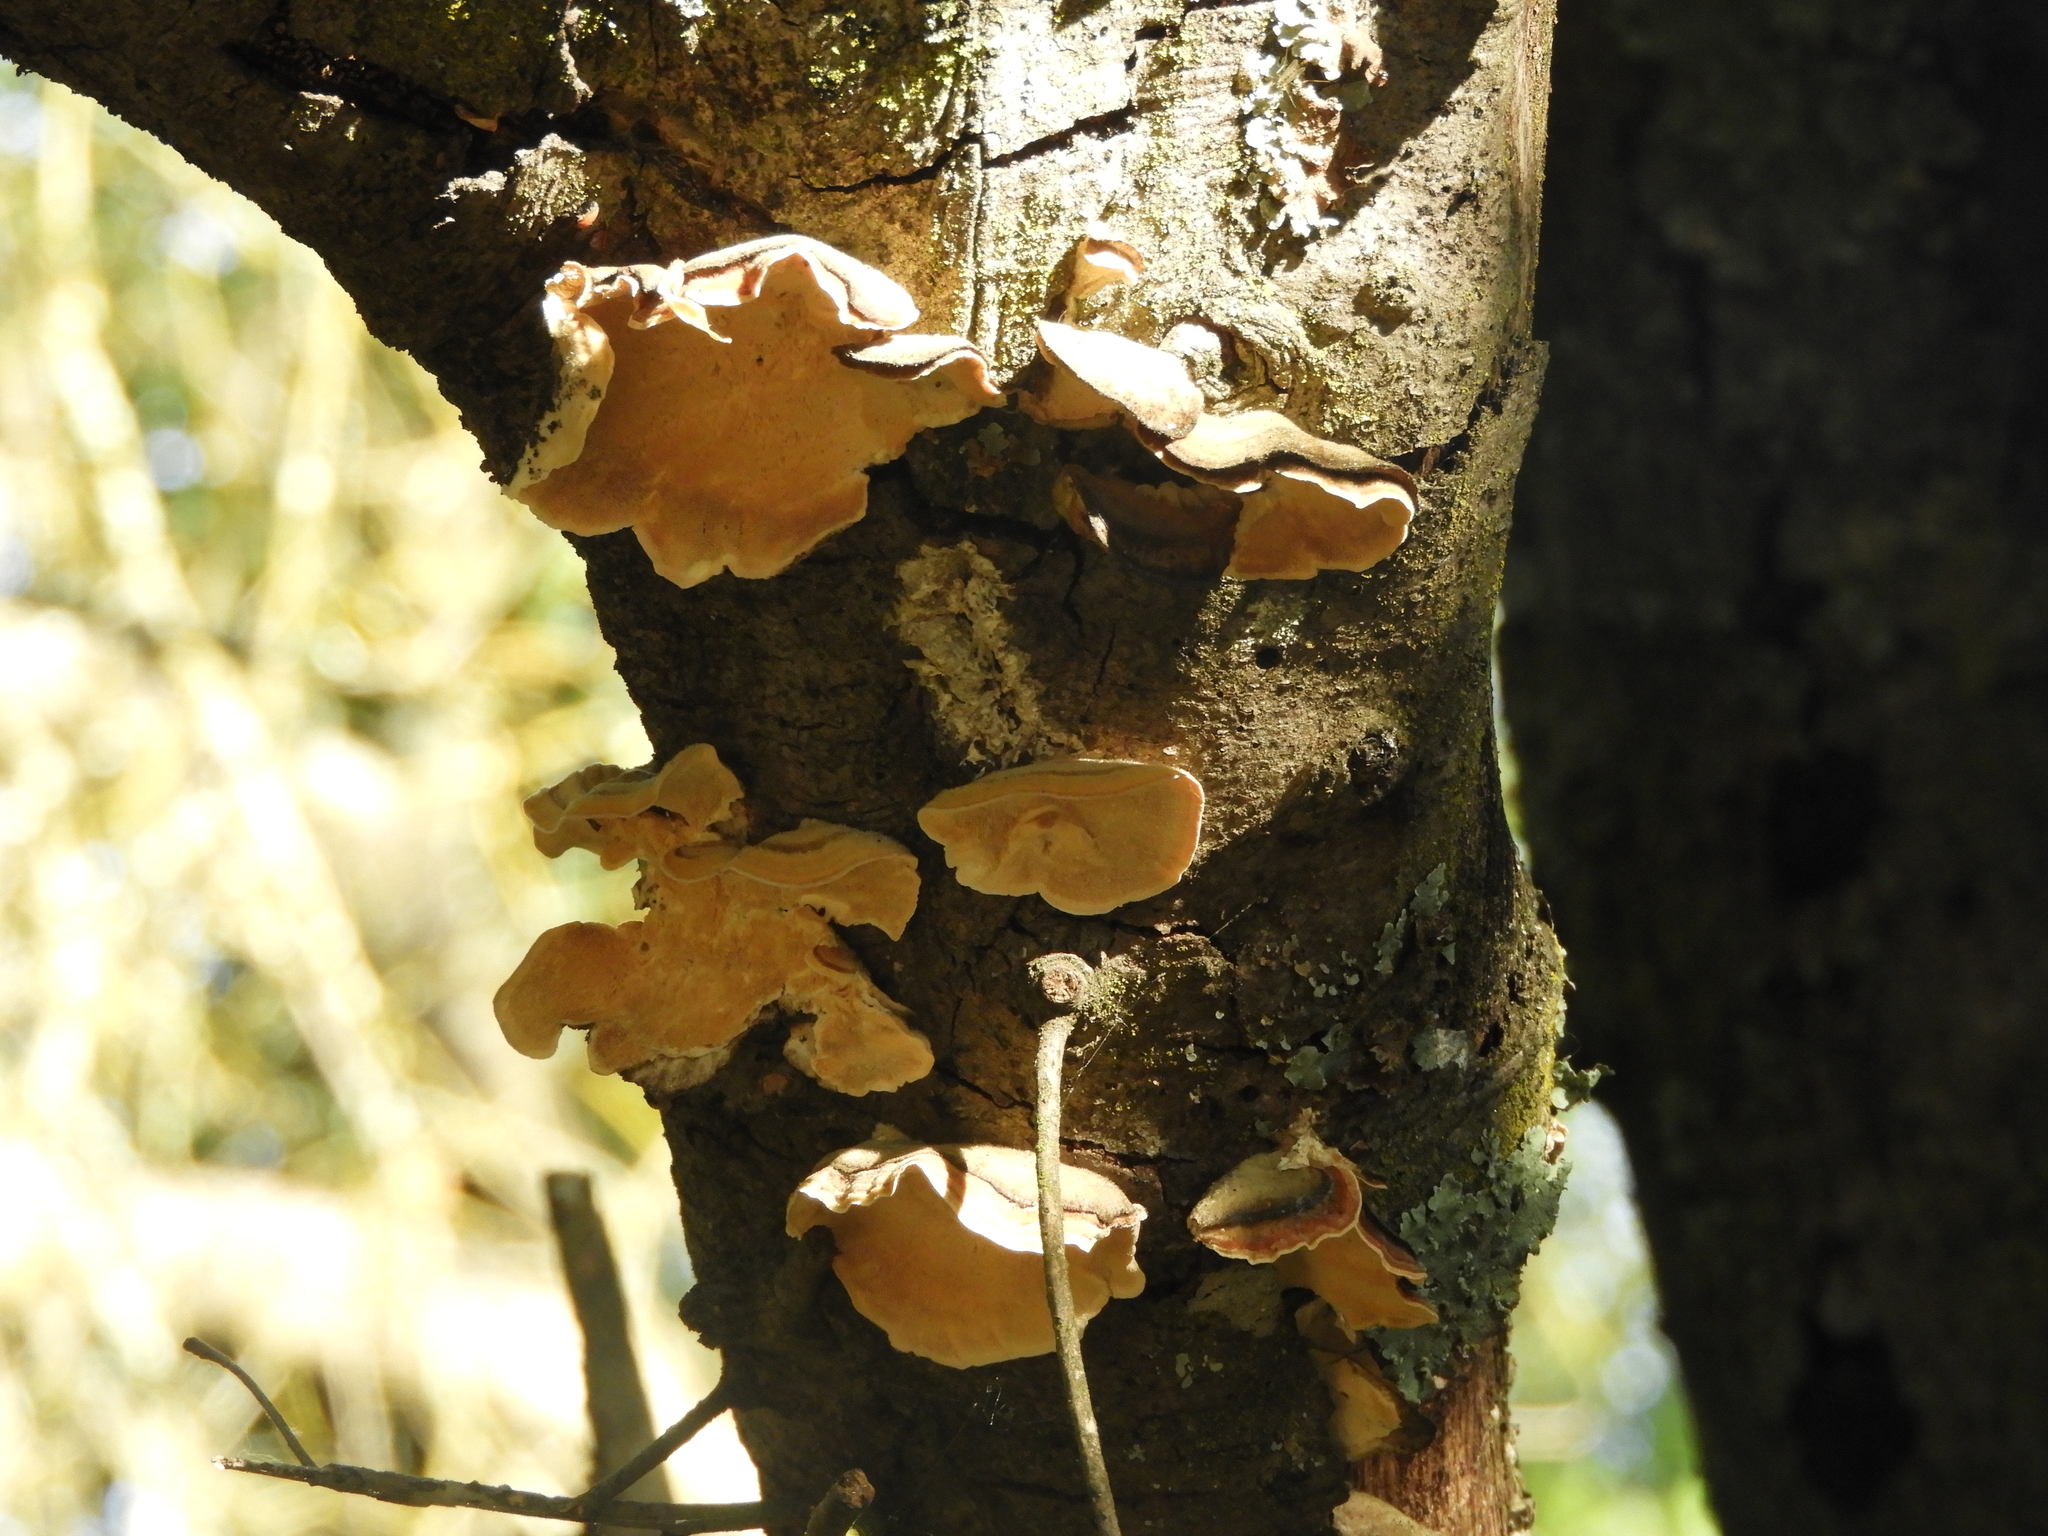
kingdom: Fungi
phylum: Basidiomycota
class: Agaricomycetes
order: Russulales
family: Stereaceae
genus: Stereum
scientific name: Stereum hirsutum
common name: Hairy curtain crust
